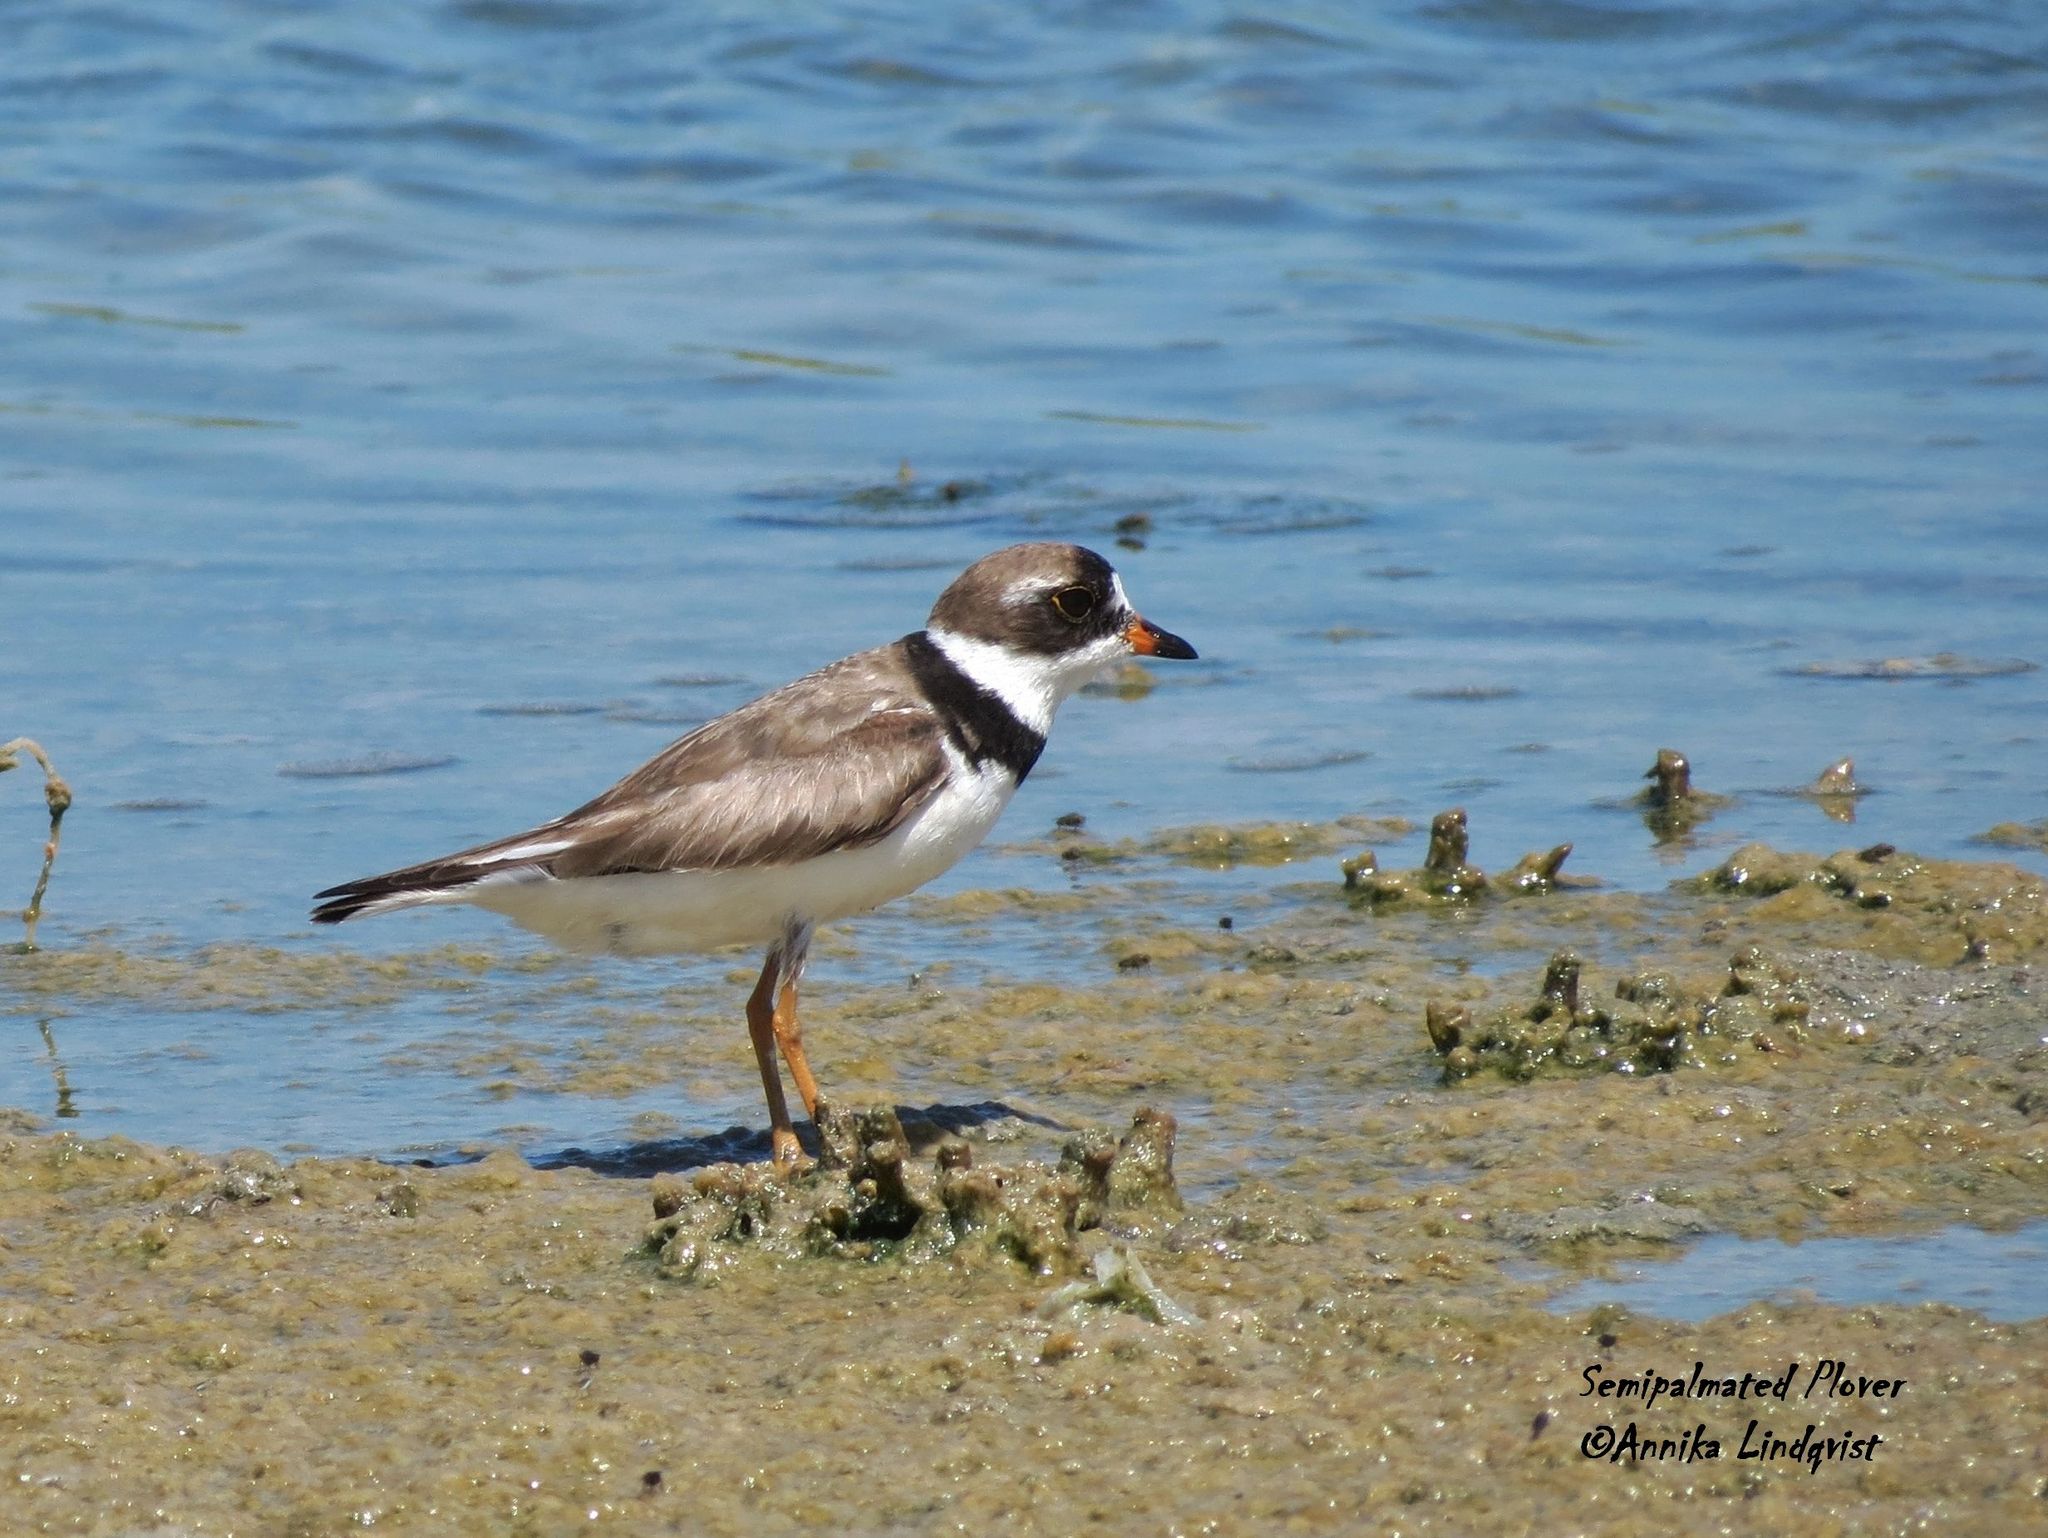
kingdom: Animalia
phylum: Chordata
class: Aves
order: Charadriiformes
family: Charadriidae
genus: Charadrius
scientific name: Charadrius semipalmatus
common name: Semipalmated plover
